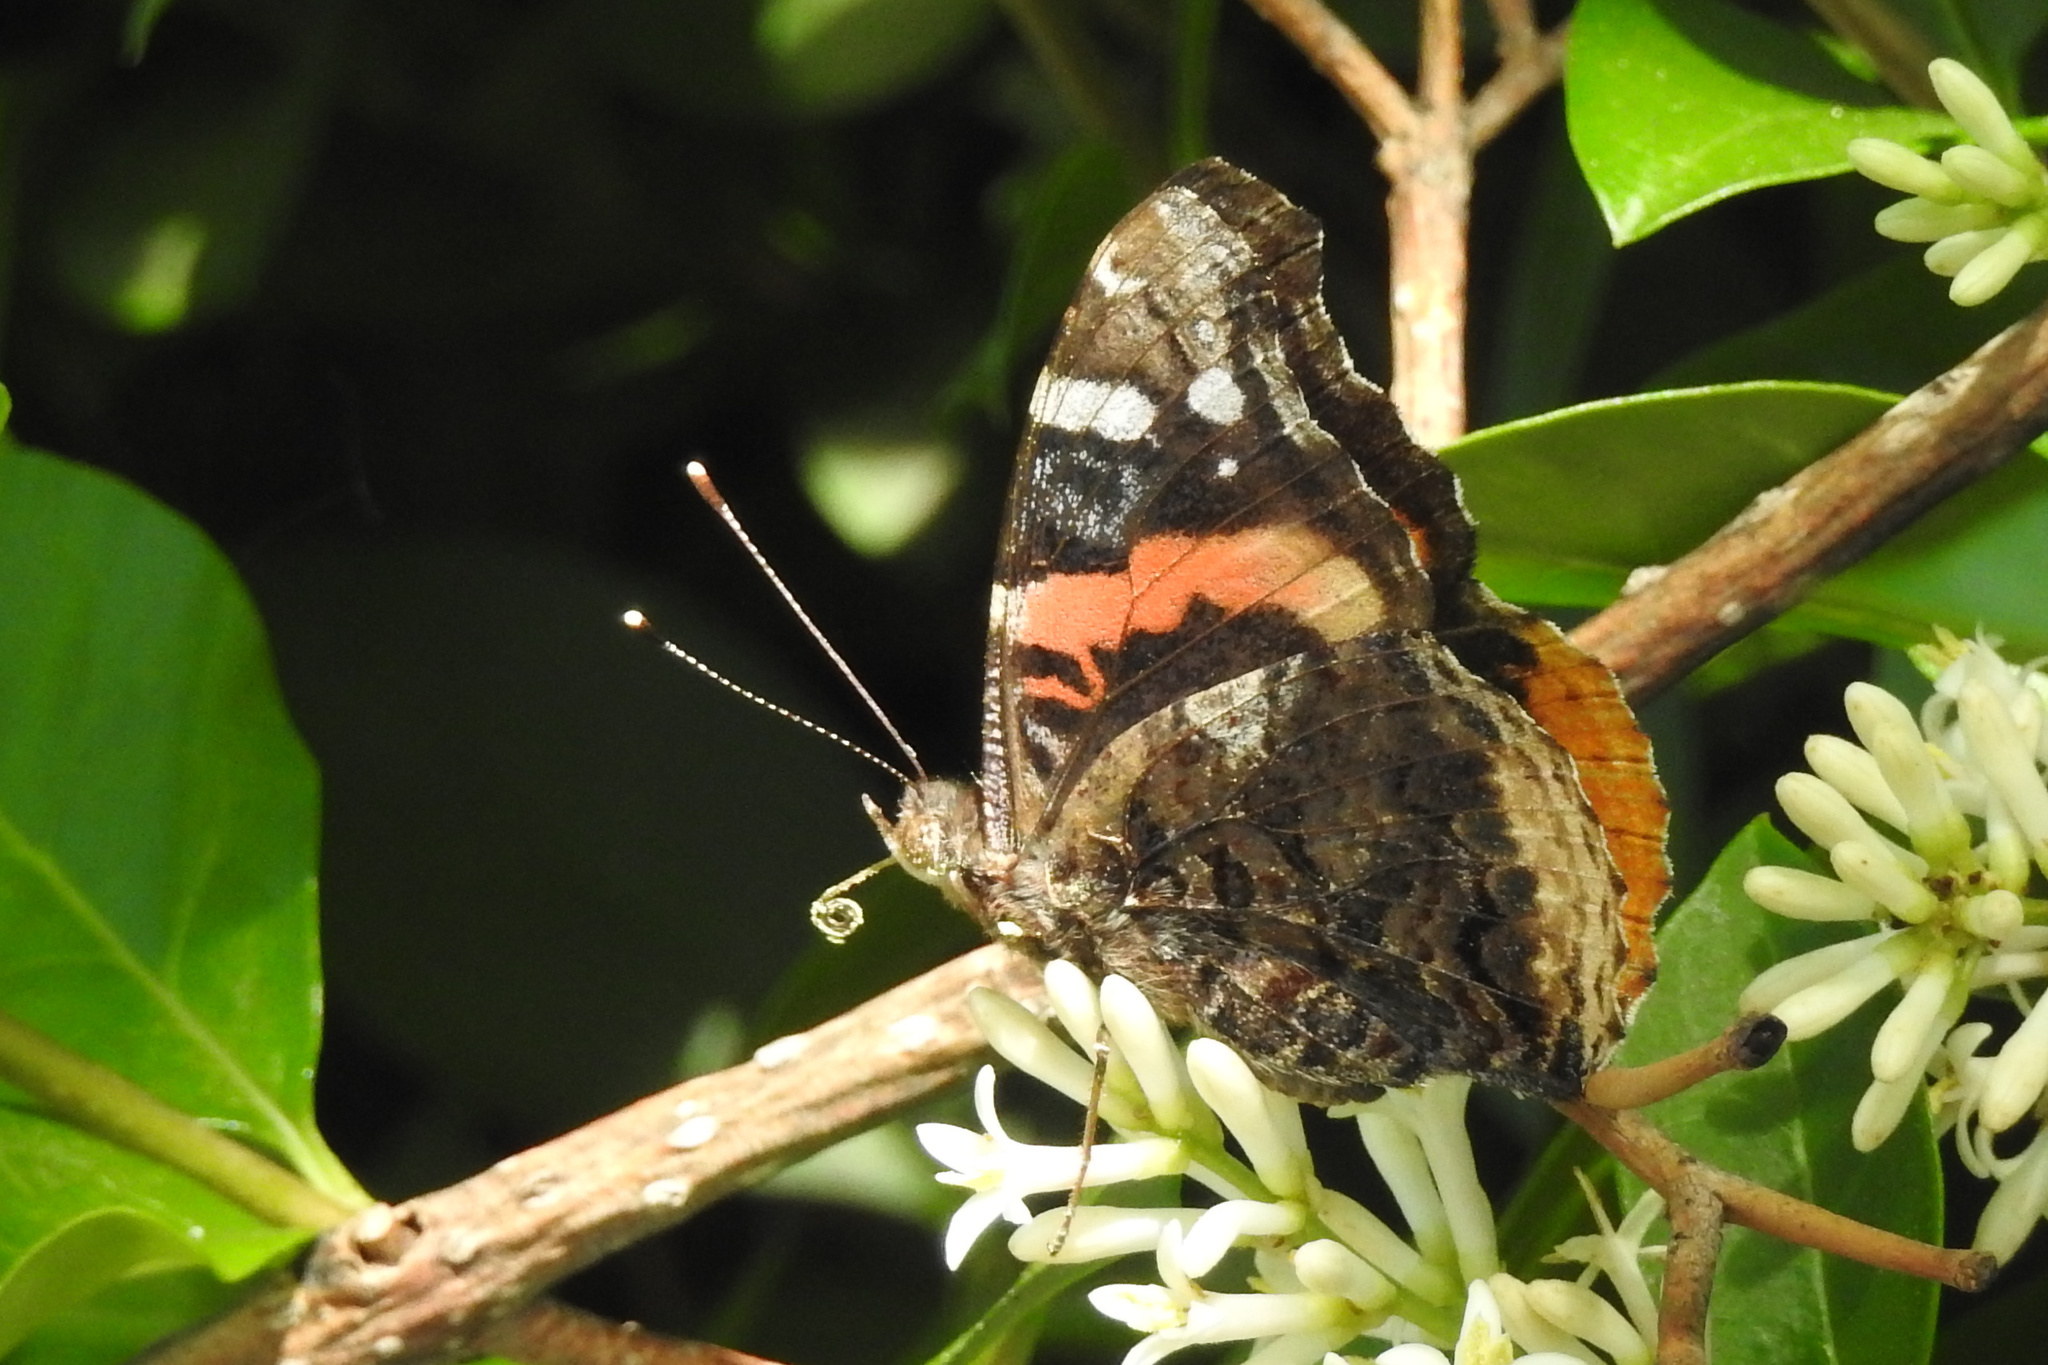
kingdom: Animalia
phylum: Arthropoda
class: Insecta
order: Lepidoptera
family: Nymphalidae
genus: Vanessa
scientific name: Vanessa atalanta
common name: Red admiral
